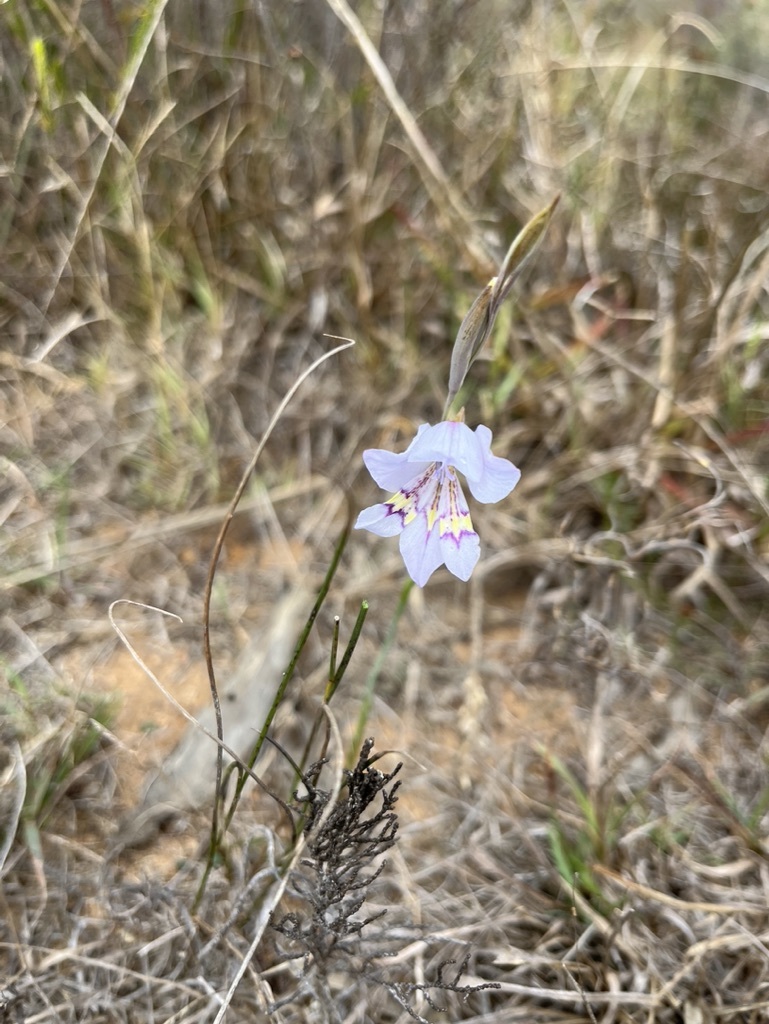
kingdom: Plantae
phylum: Tracheophyta
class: Liliopsida
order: Asparagales
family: Iridaceae
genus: Gladiolus
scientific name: Gladiolus brevifolius
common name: March pypie
